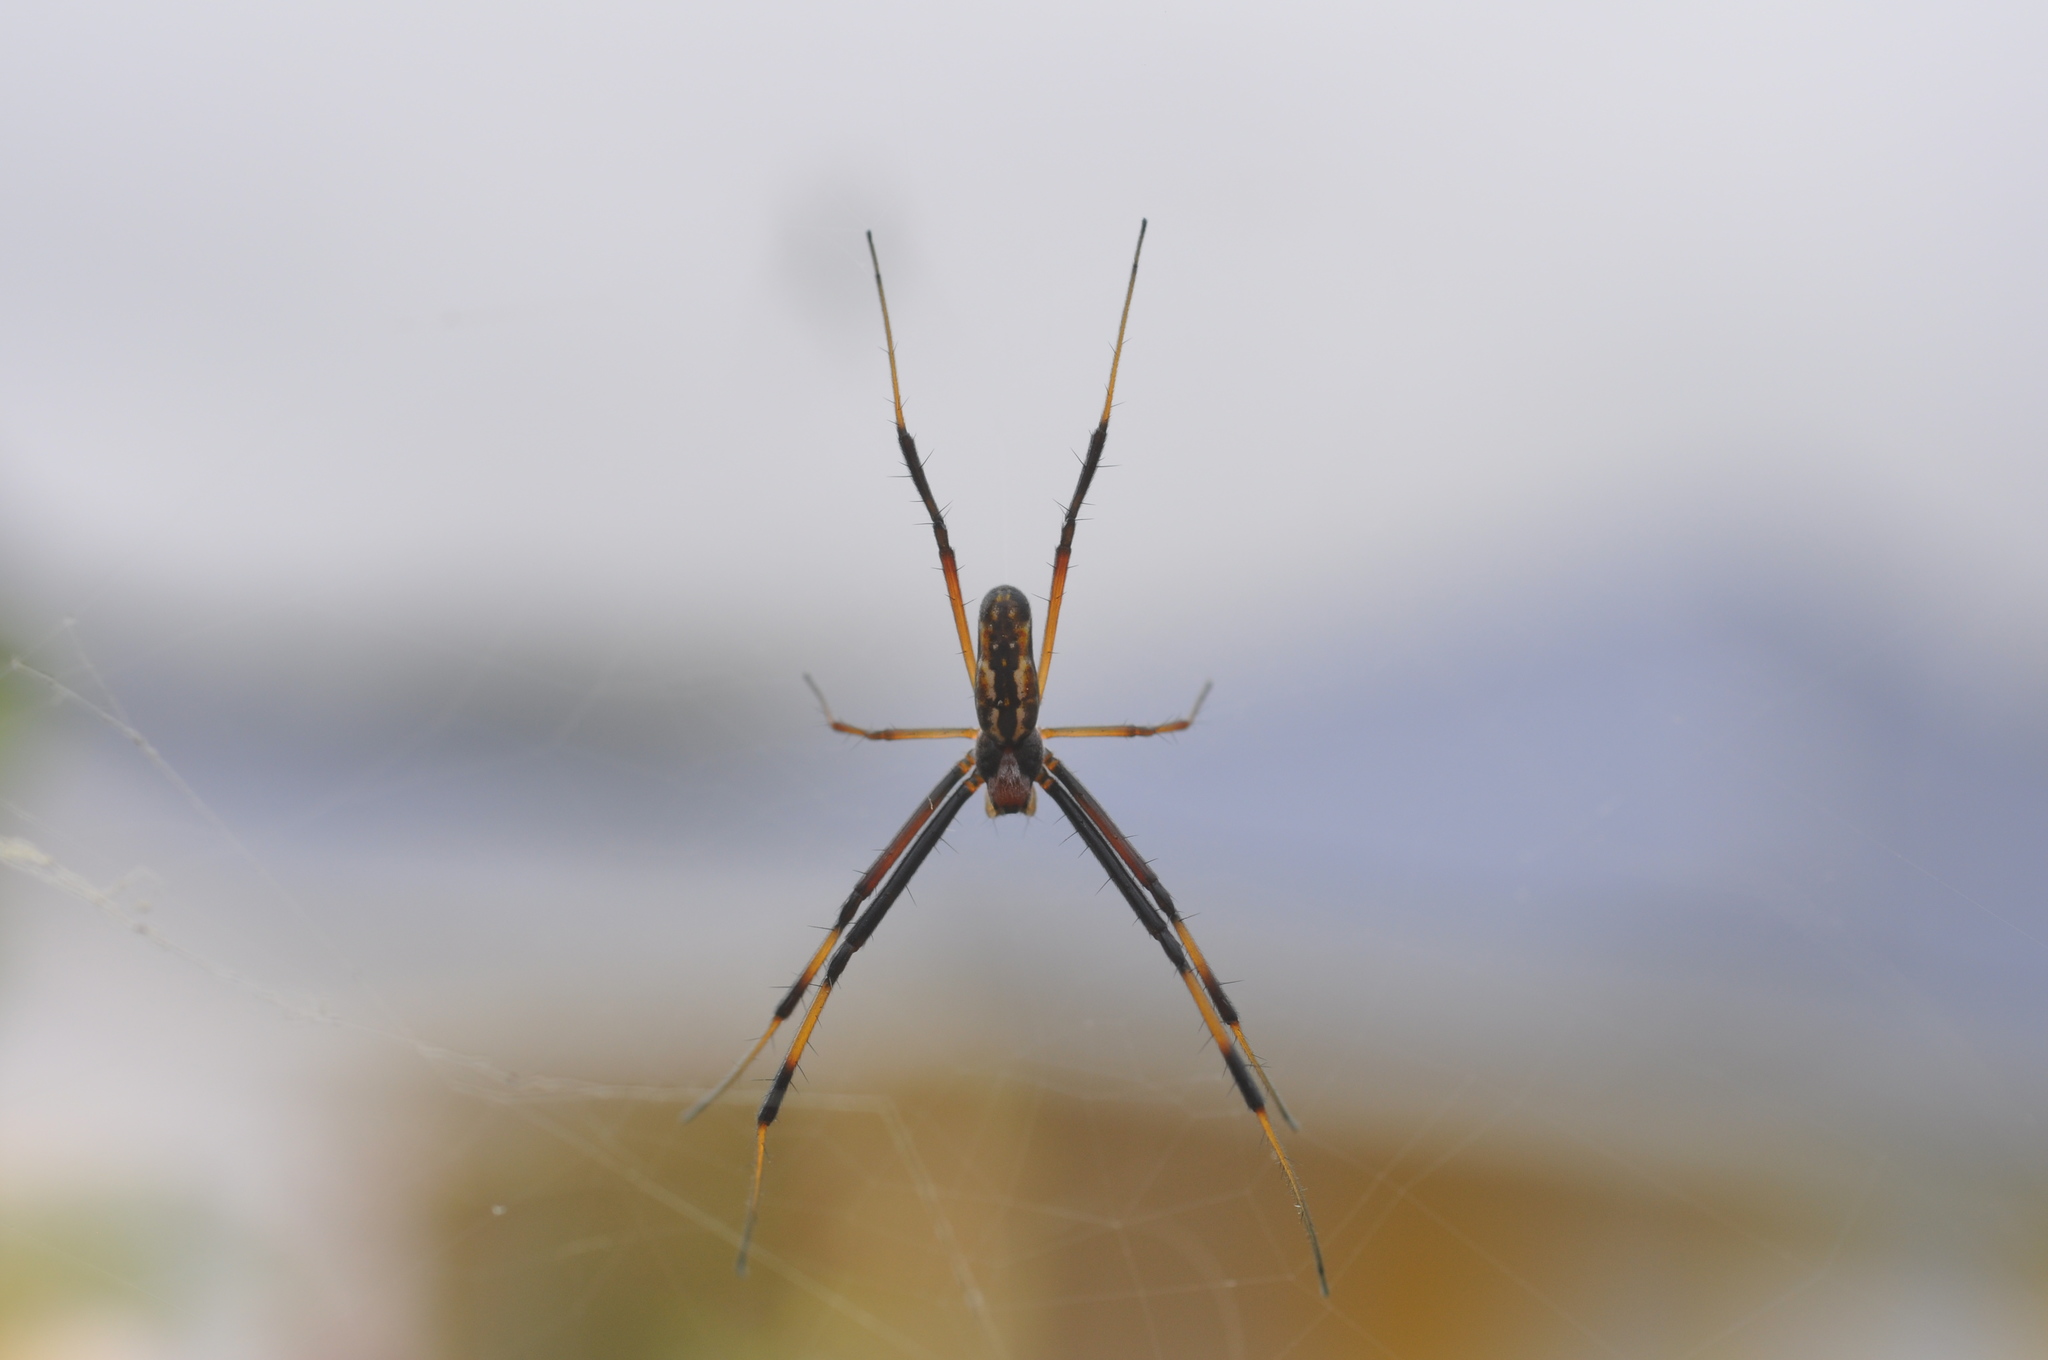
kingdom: Animalia
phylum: Arthropoda
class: Arachnida
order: Araneae
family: Araneidae
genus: Trichonephila
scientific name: Trichonephila inaurata
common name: Red-legged golden orb weaver
